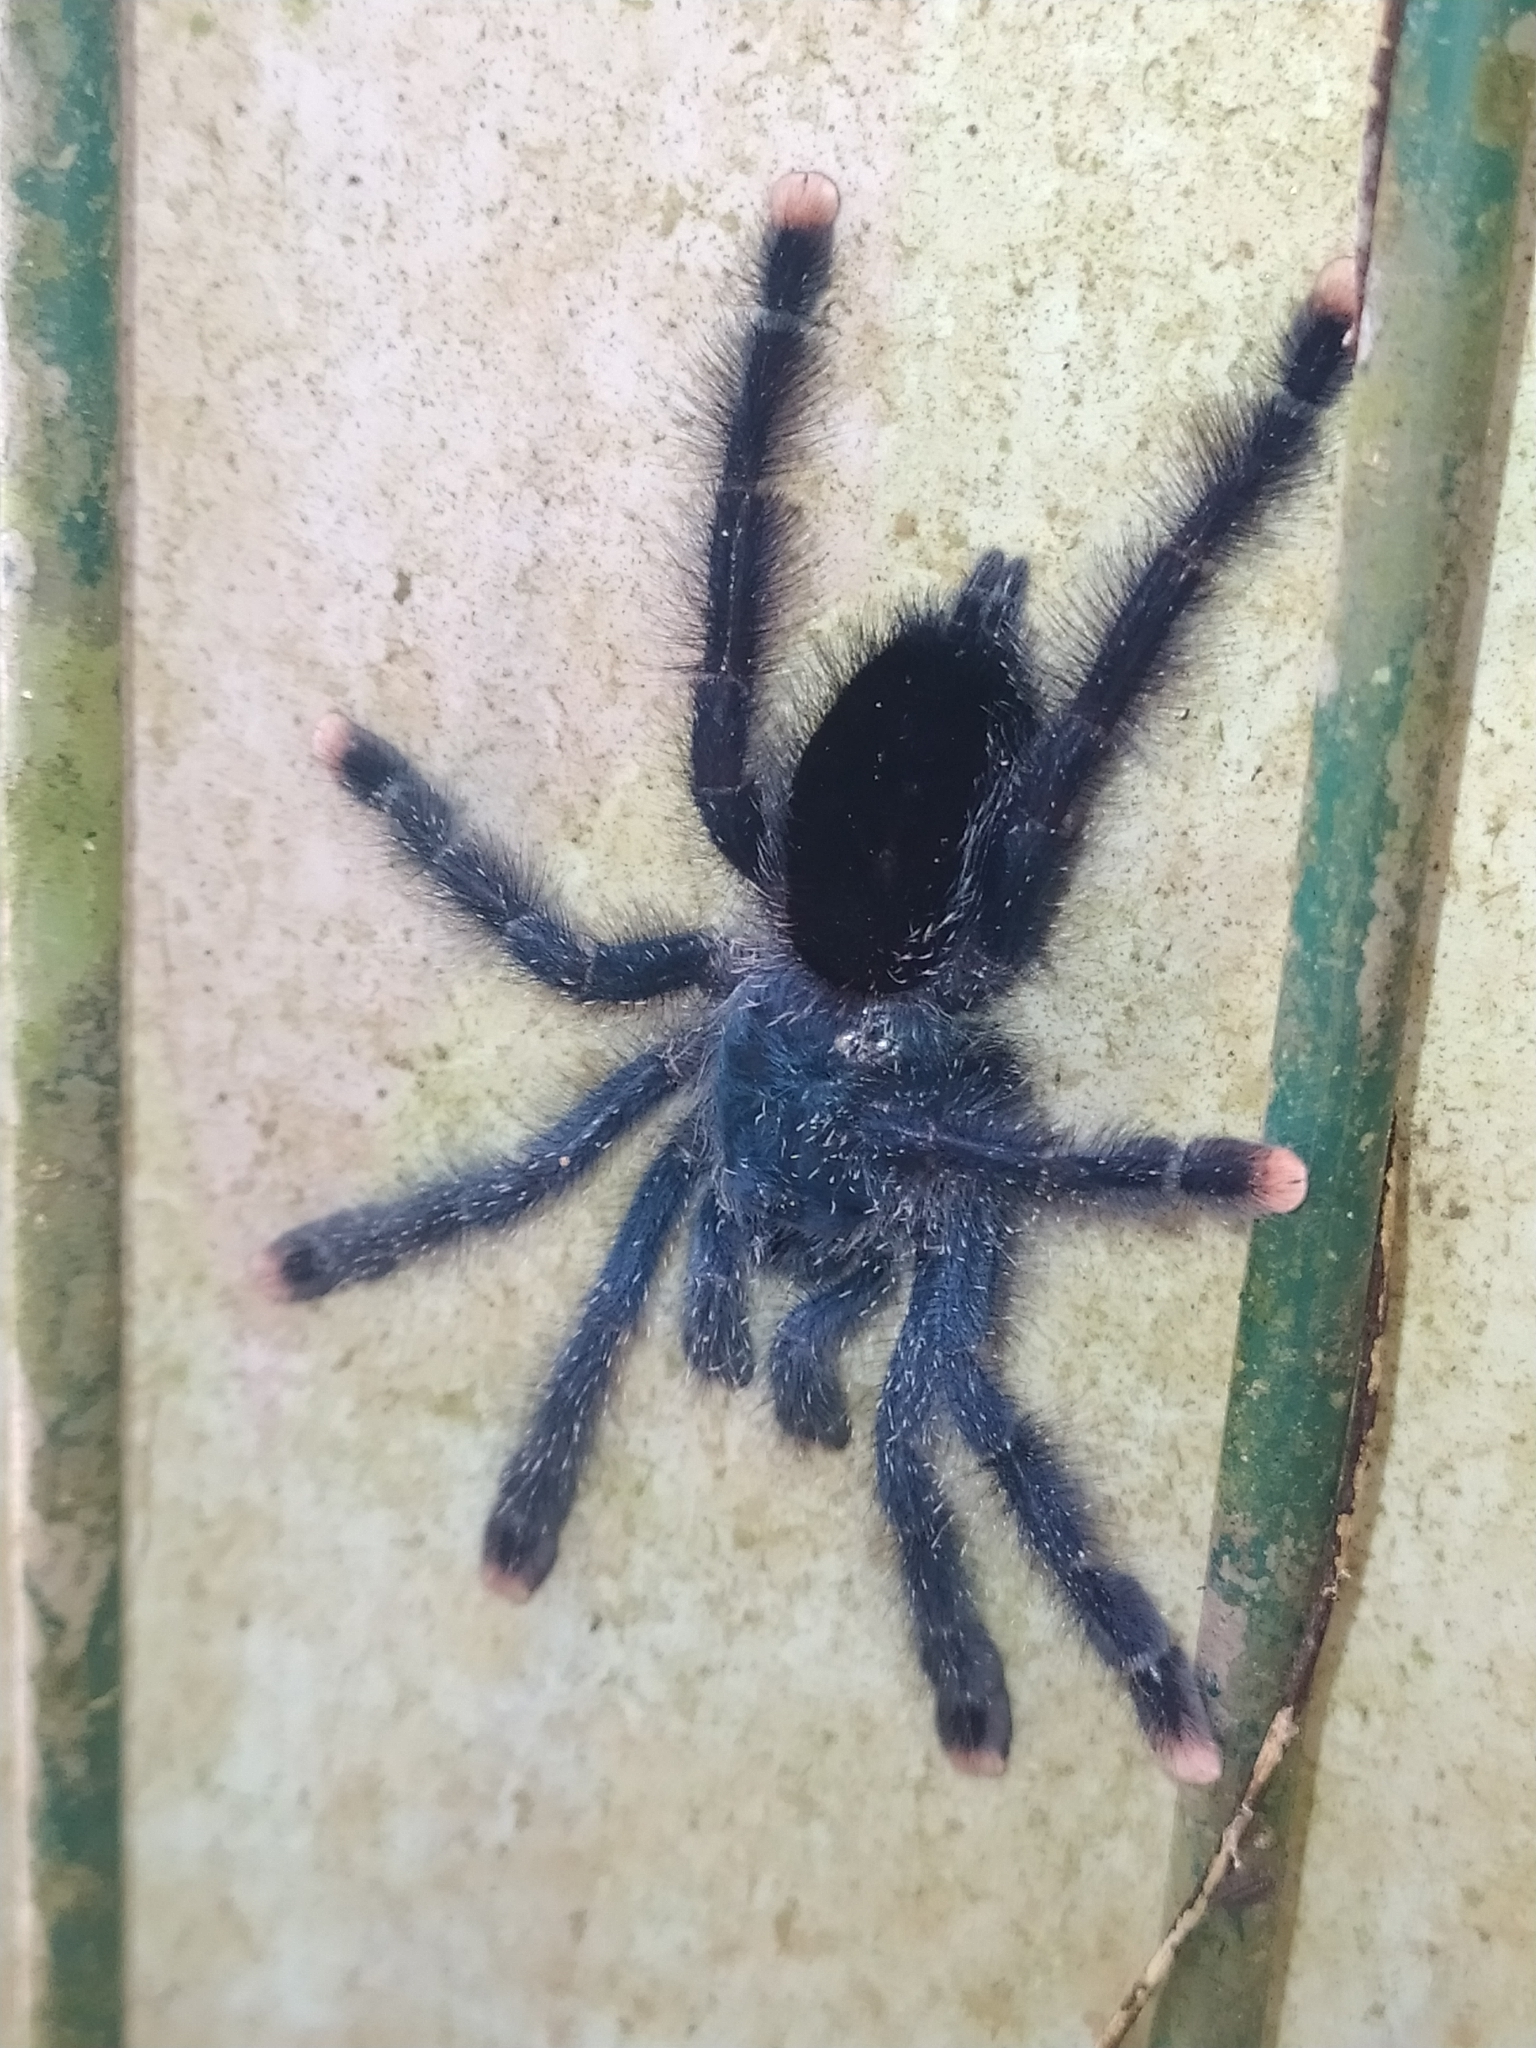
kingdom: Animalia
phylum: Arthropoda
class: Arachnida
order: Araneae
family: Theraphosidae
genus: Avicularia
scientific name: Avicularia avicularia
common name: Tarantula spiders
